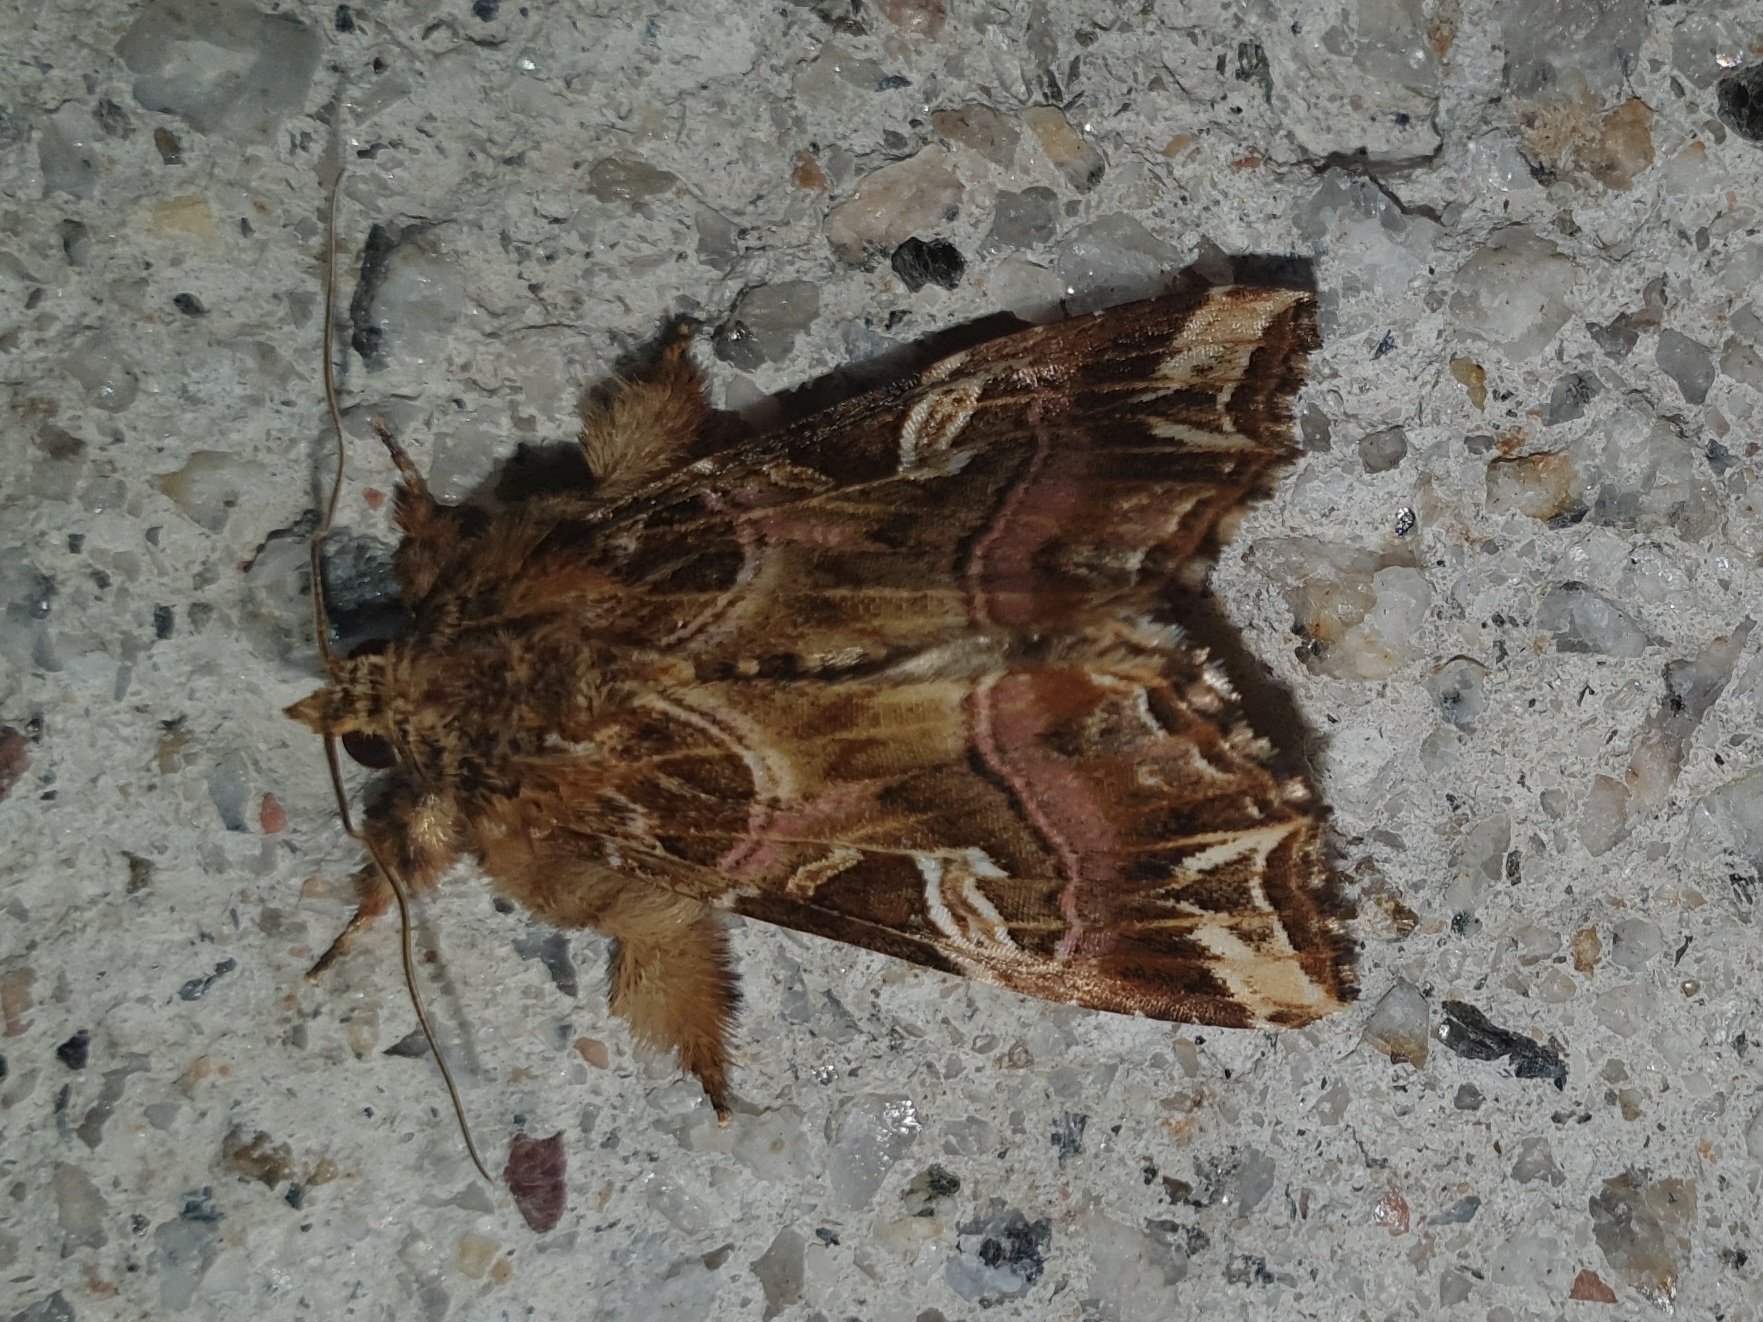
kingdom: Animalia
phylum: Arthropoda
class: Insecta
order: Lepidoptera
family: Noctuidae
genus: Callopistria
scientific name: Callopistria juventina
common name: Latin
